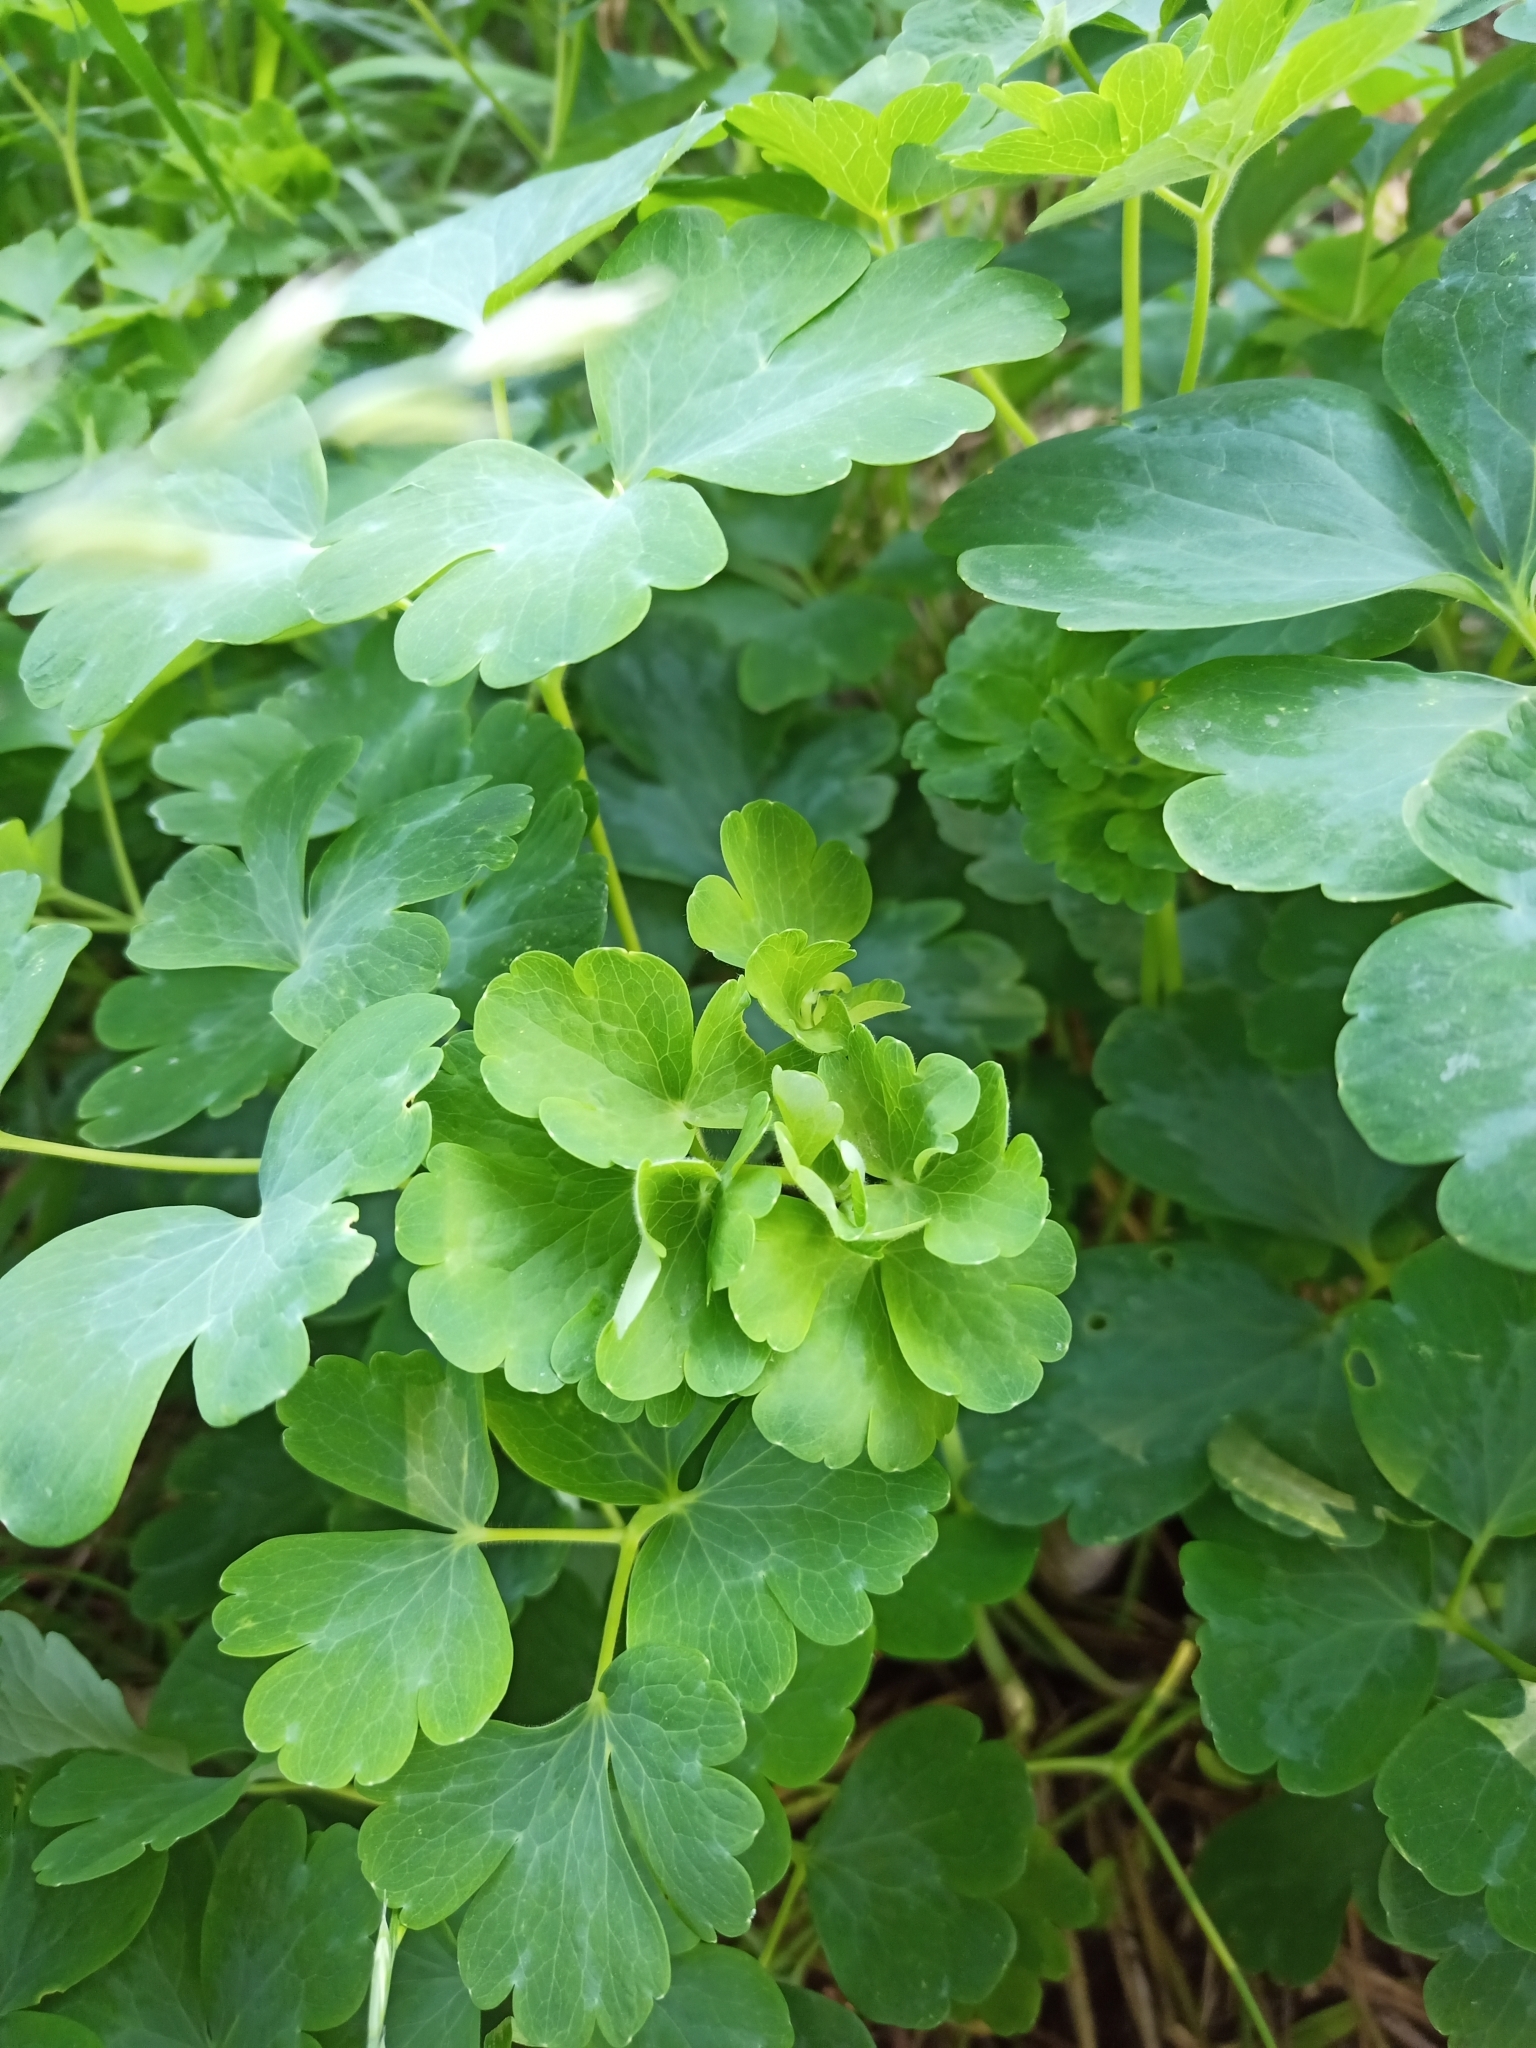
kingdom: Plantae
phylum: Tracheophyta
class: Magnoliopsida
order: Ranunculales
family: Ranunculaceae
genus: Aquilegia
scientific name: Aquilegia vulgaris
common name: Columbine
